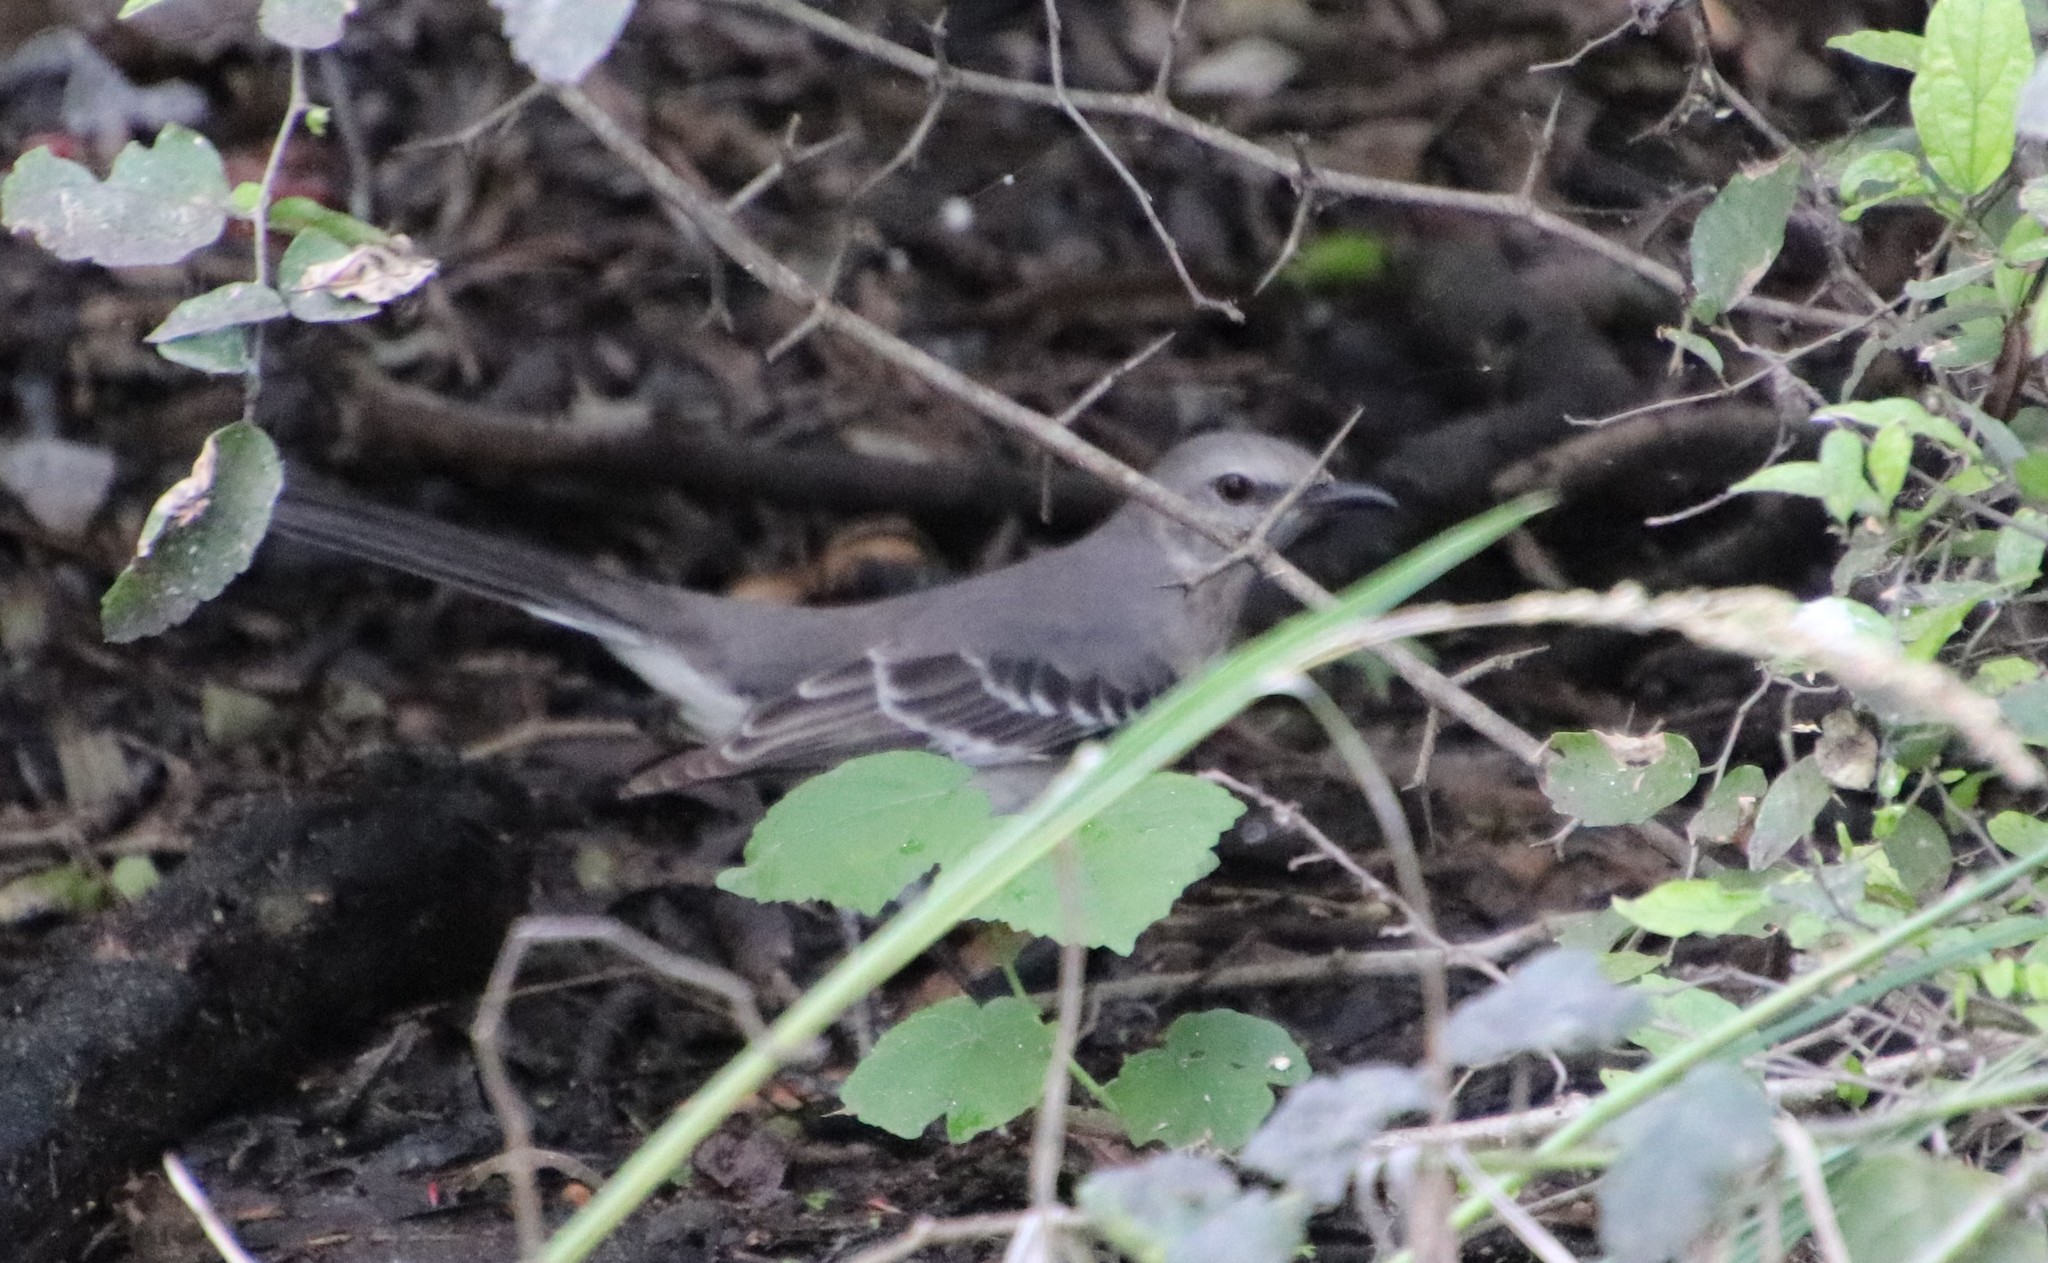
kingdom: Animalia
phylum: Chordata
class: Aves
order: Passeriformes
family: Mimidae
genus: Mimus
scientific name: Mimus polyglottos
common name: Northern mockingbird
